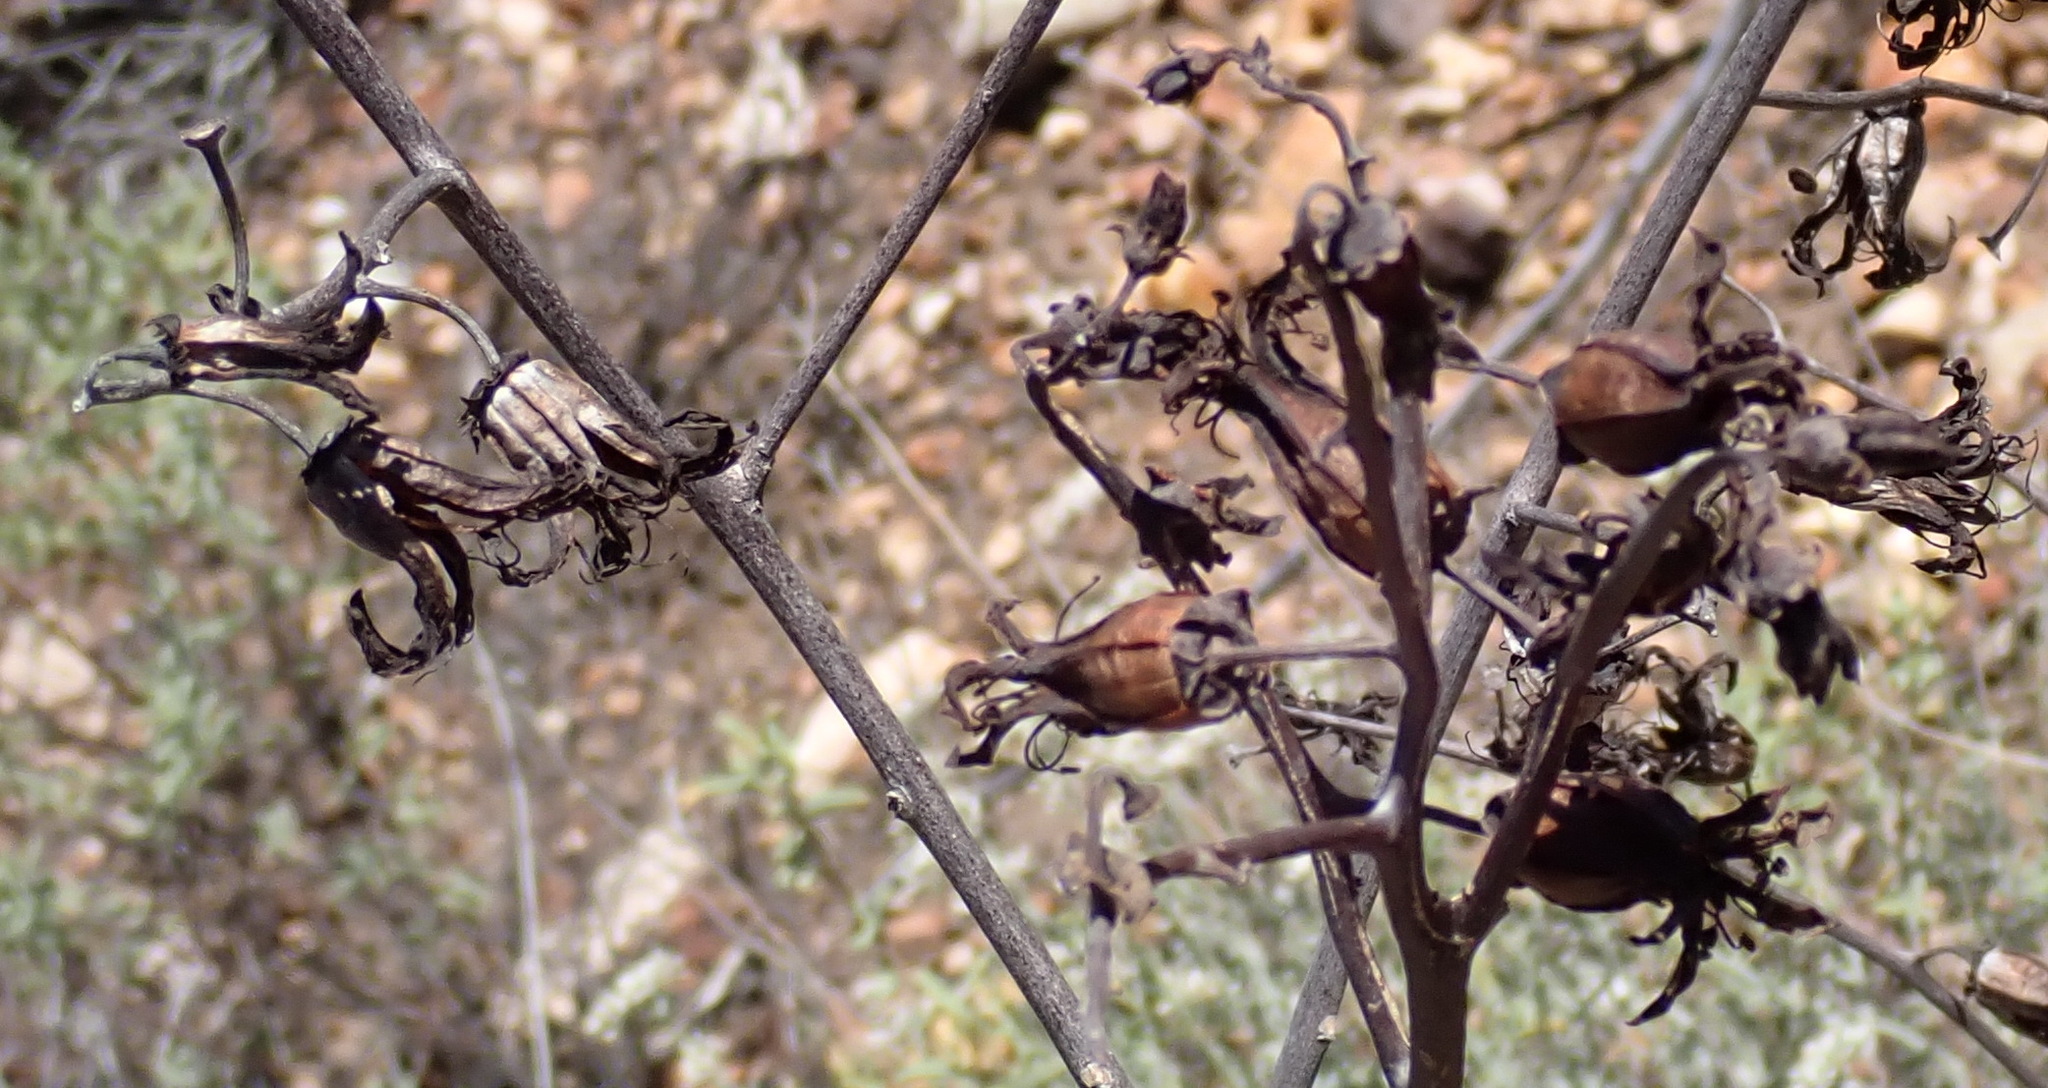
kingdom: Plantae
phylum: Tracheophyta
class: Magnoliopsida
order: Saxifragales
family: Crassulaceae
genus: Tylecodon
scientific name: Tylecodon paniculatus
